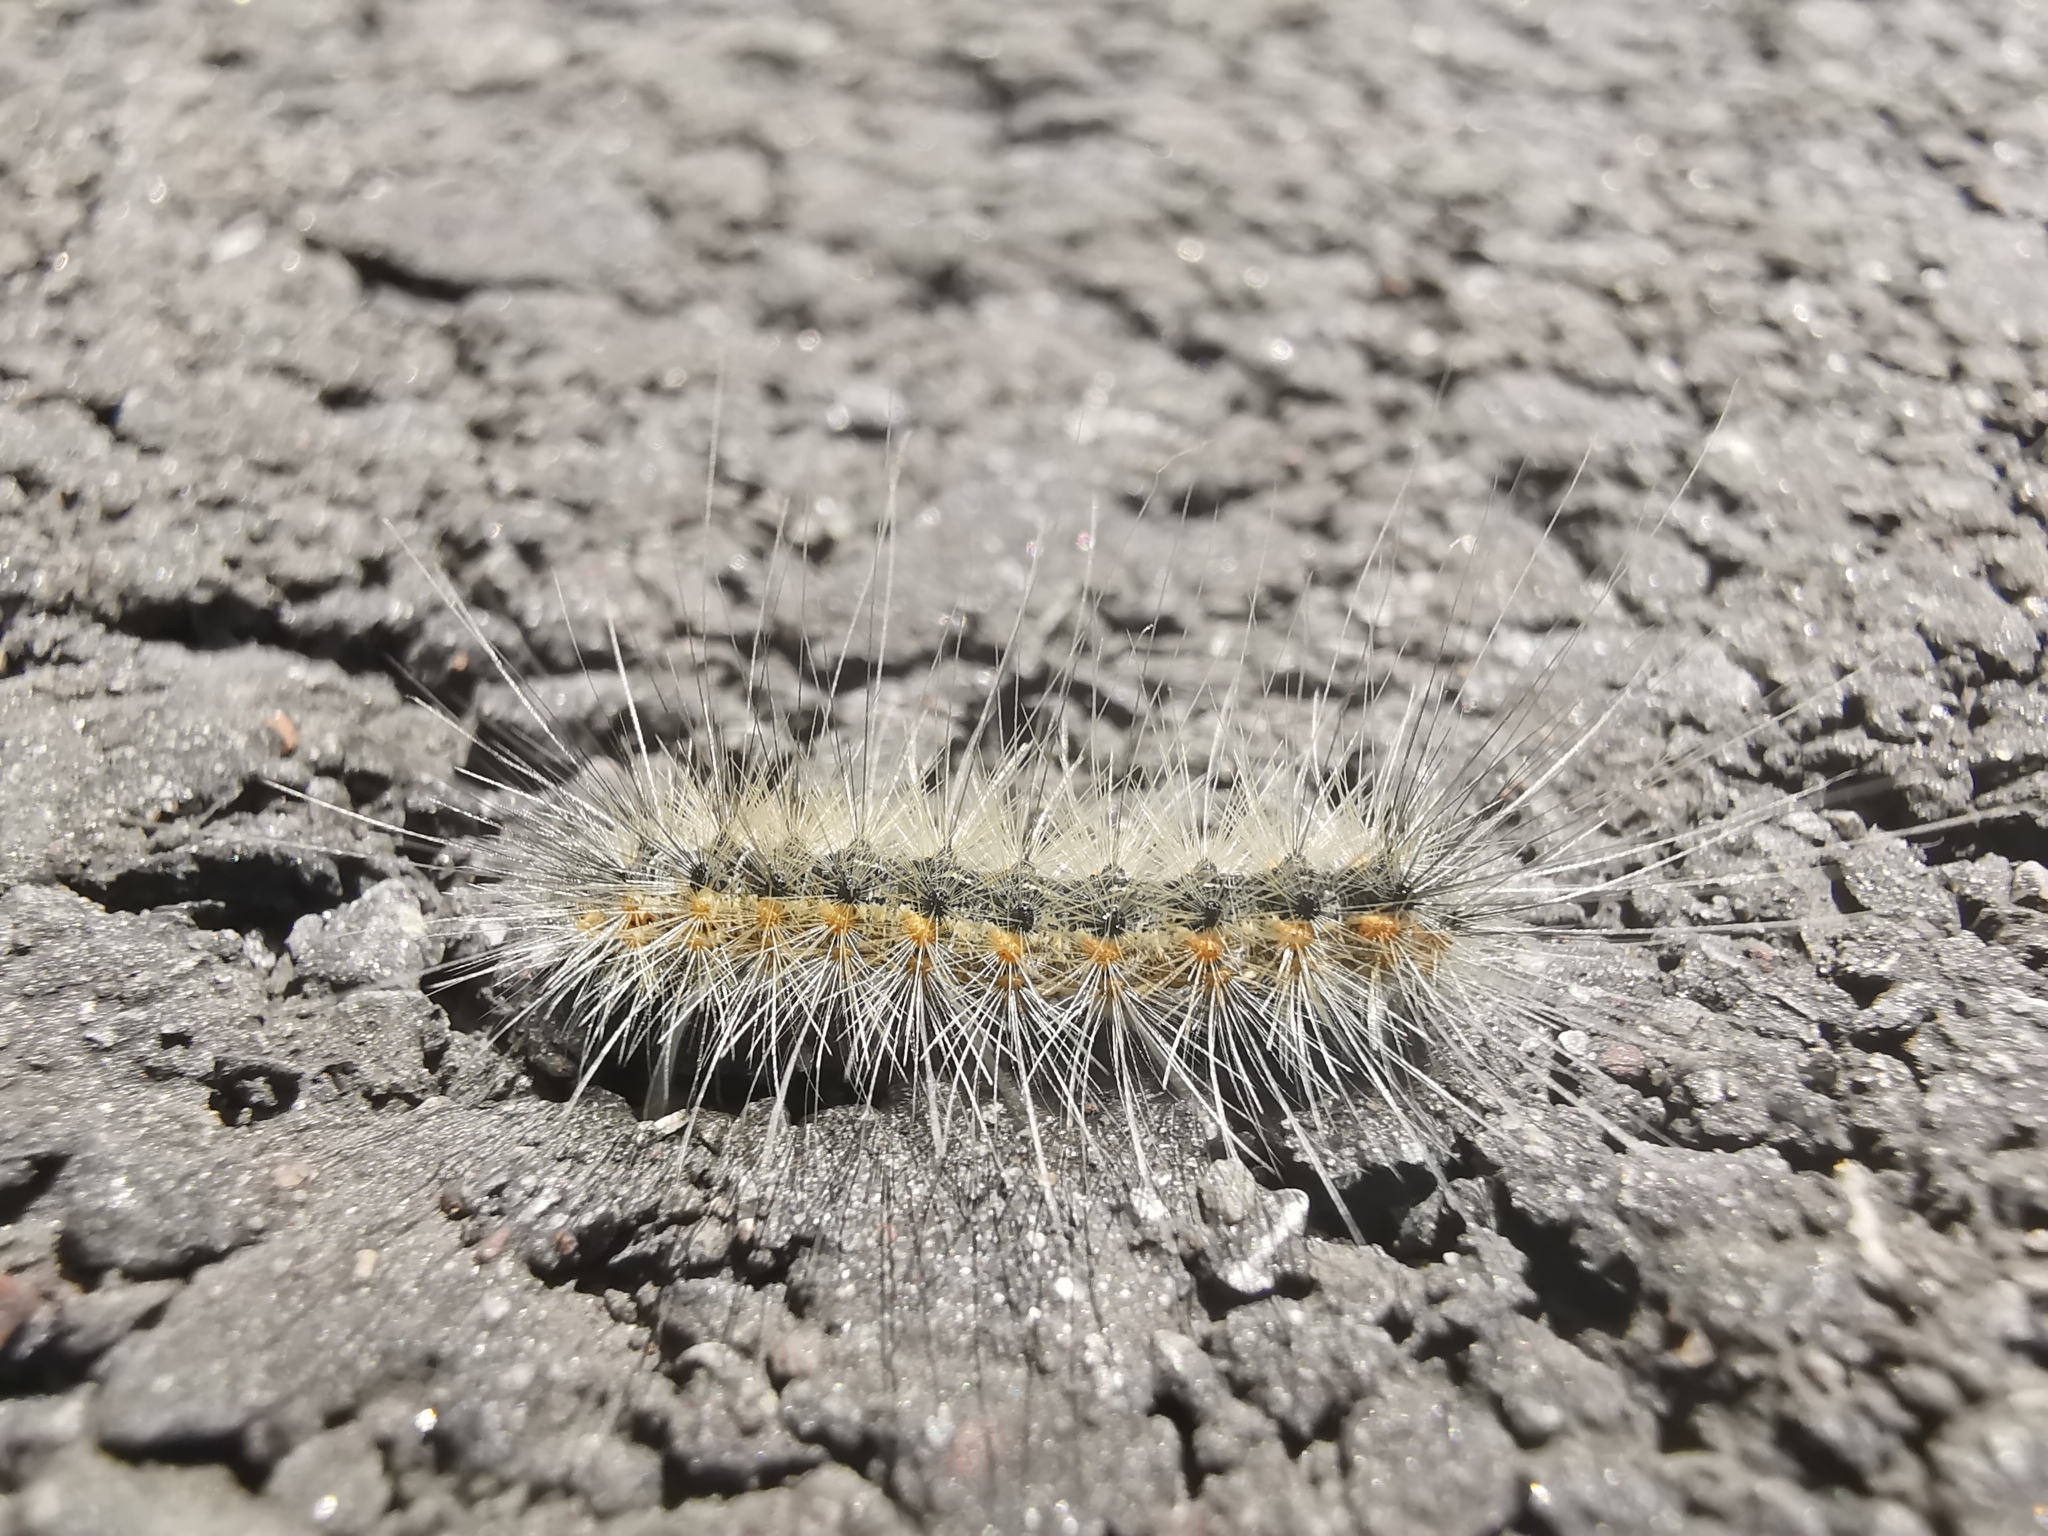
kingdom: Animalia
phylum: Arthropoda
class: Insecta
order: Lepidoptera
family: Erebidae
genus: Hyphantria
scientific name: Hyphantria cunea
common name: American white moth
